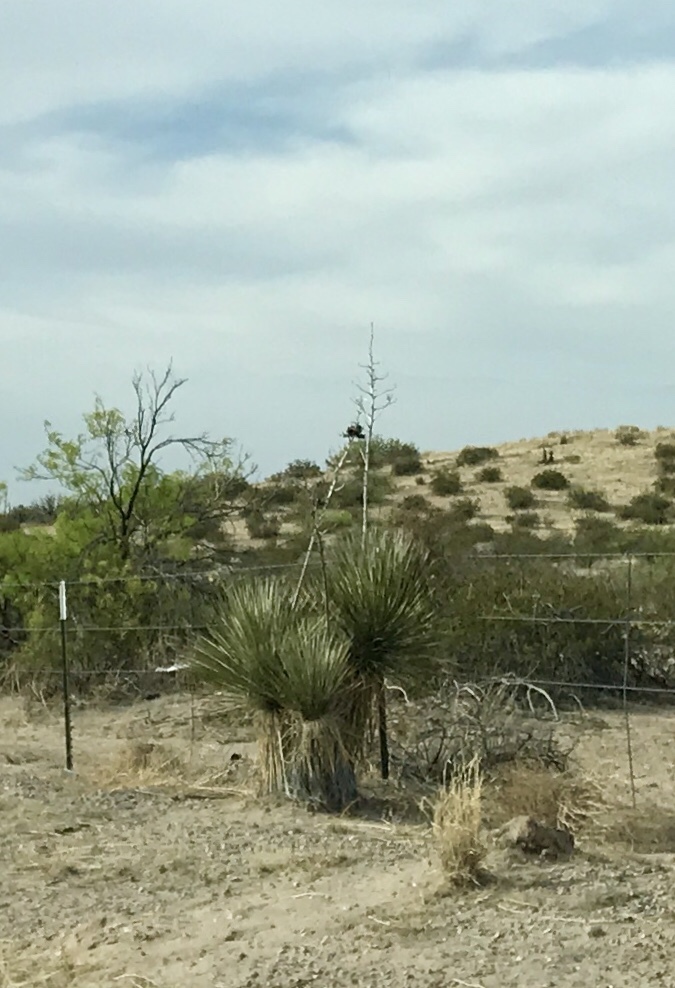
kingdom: Plantae
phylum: Tracheophyta
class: Liliopsida
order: Asparagales
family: Asparagaceae
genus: Yucca
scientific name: Yucca elata
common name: Palmella
